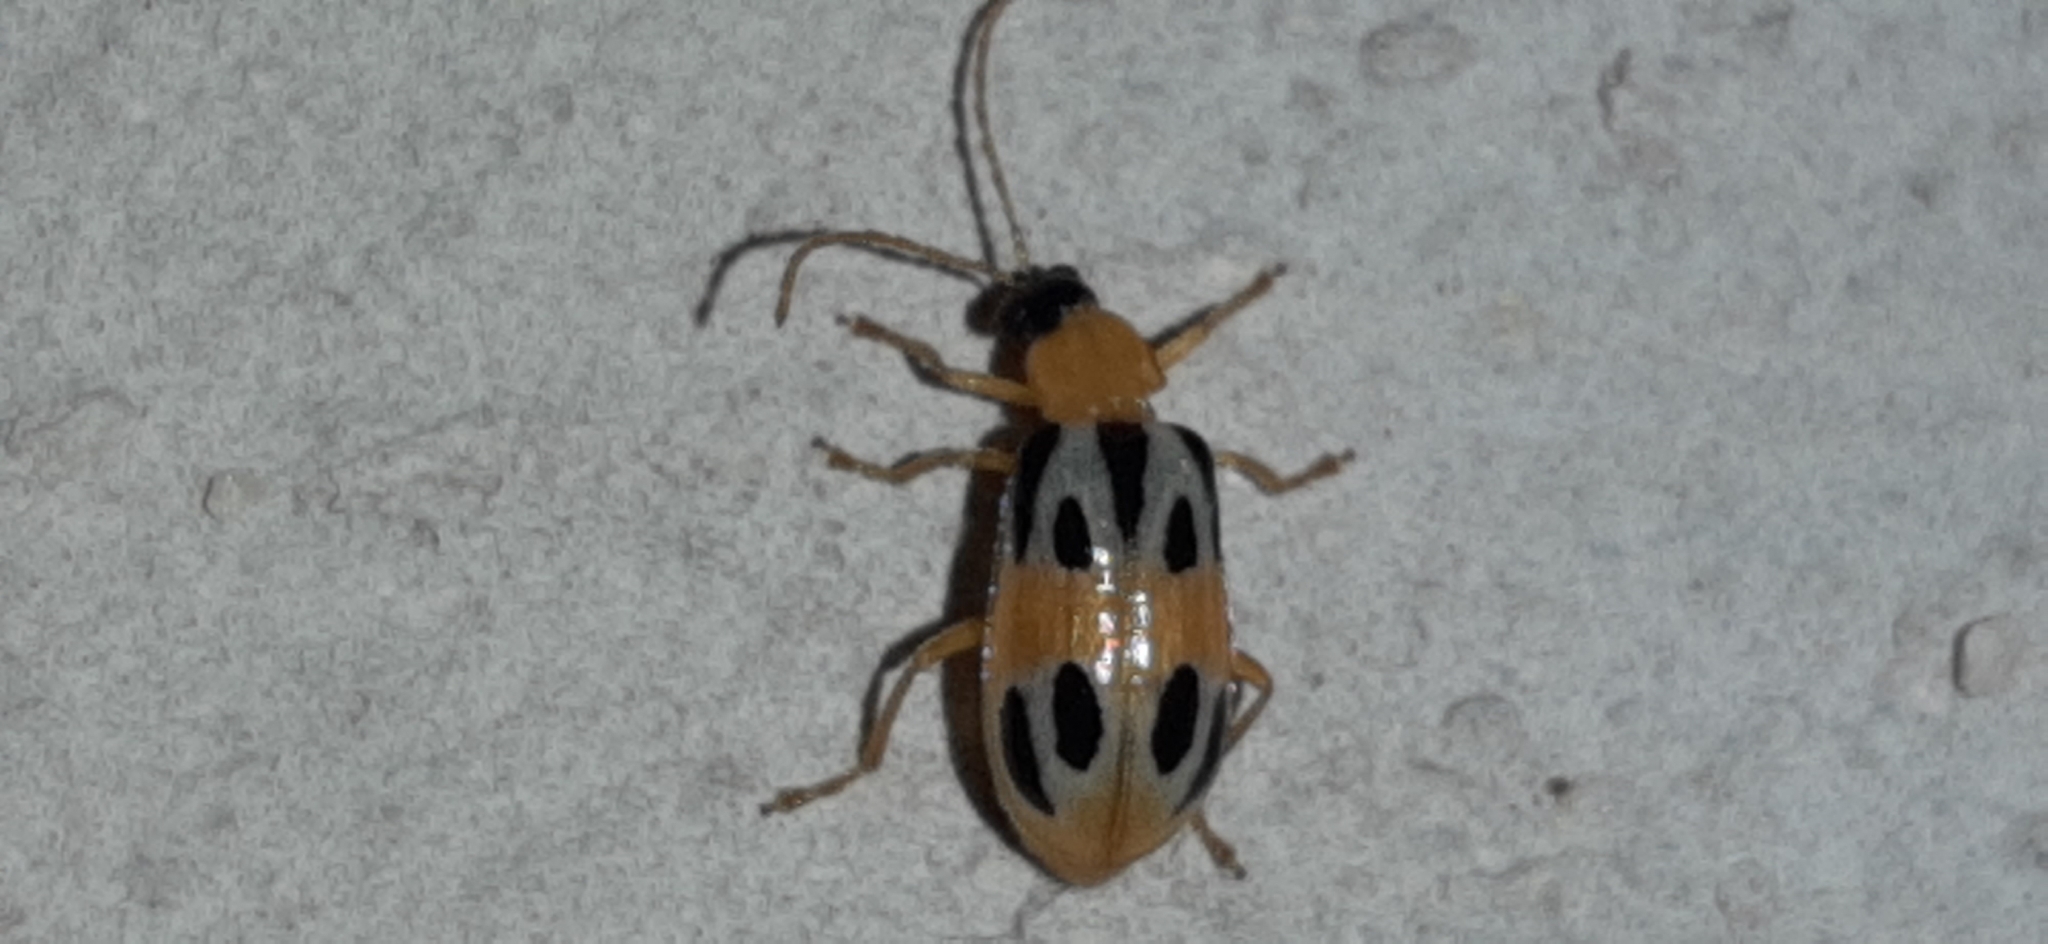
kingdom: Animalia
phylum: Arthropoda
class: Insecta
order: Coleoptera
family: Chrysomelidae
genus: Diabrotica
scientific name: Diabrotica
